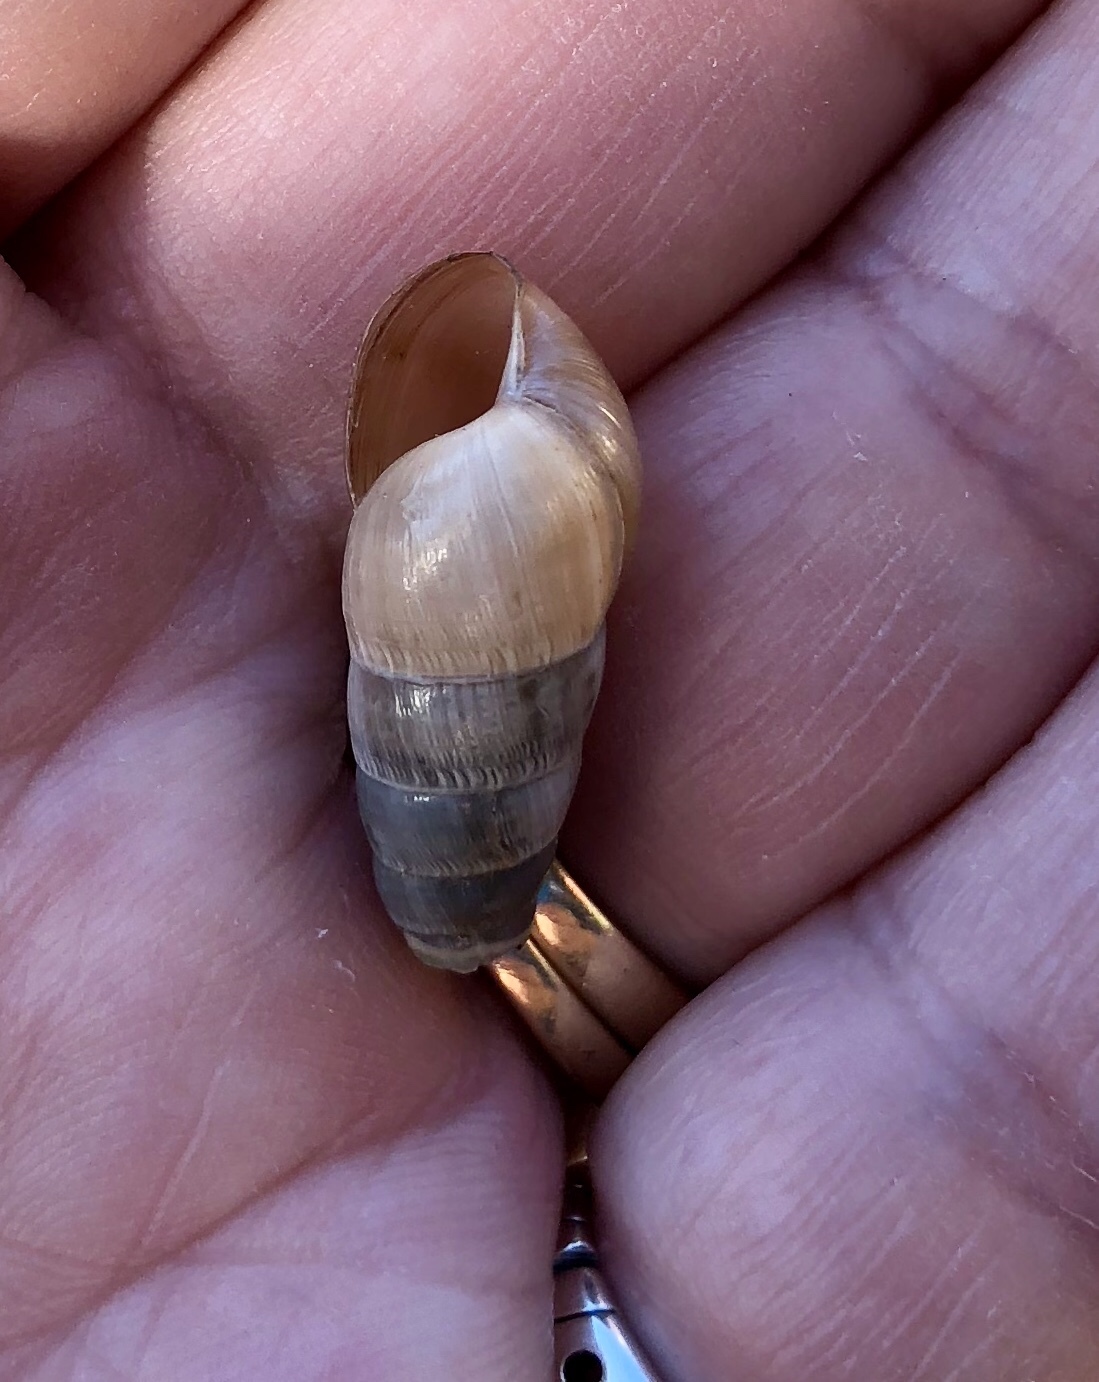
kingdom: Animalia
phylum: Mollusca
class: Gastropoda
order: Stylommatophora
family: Achatinidae
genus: Rumina
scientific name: Rumina decollata
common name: Decollate snail
